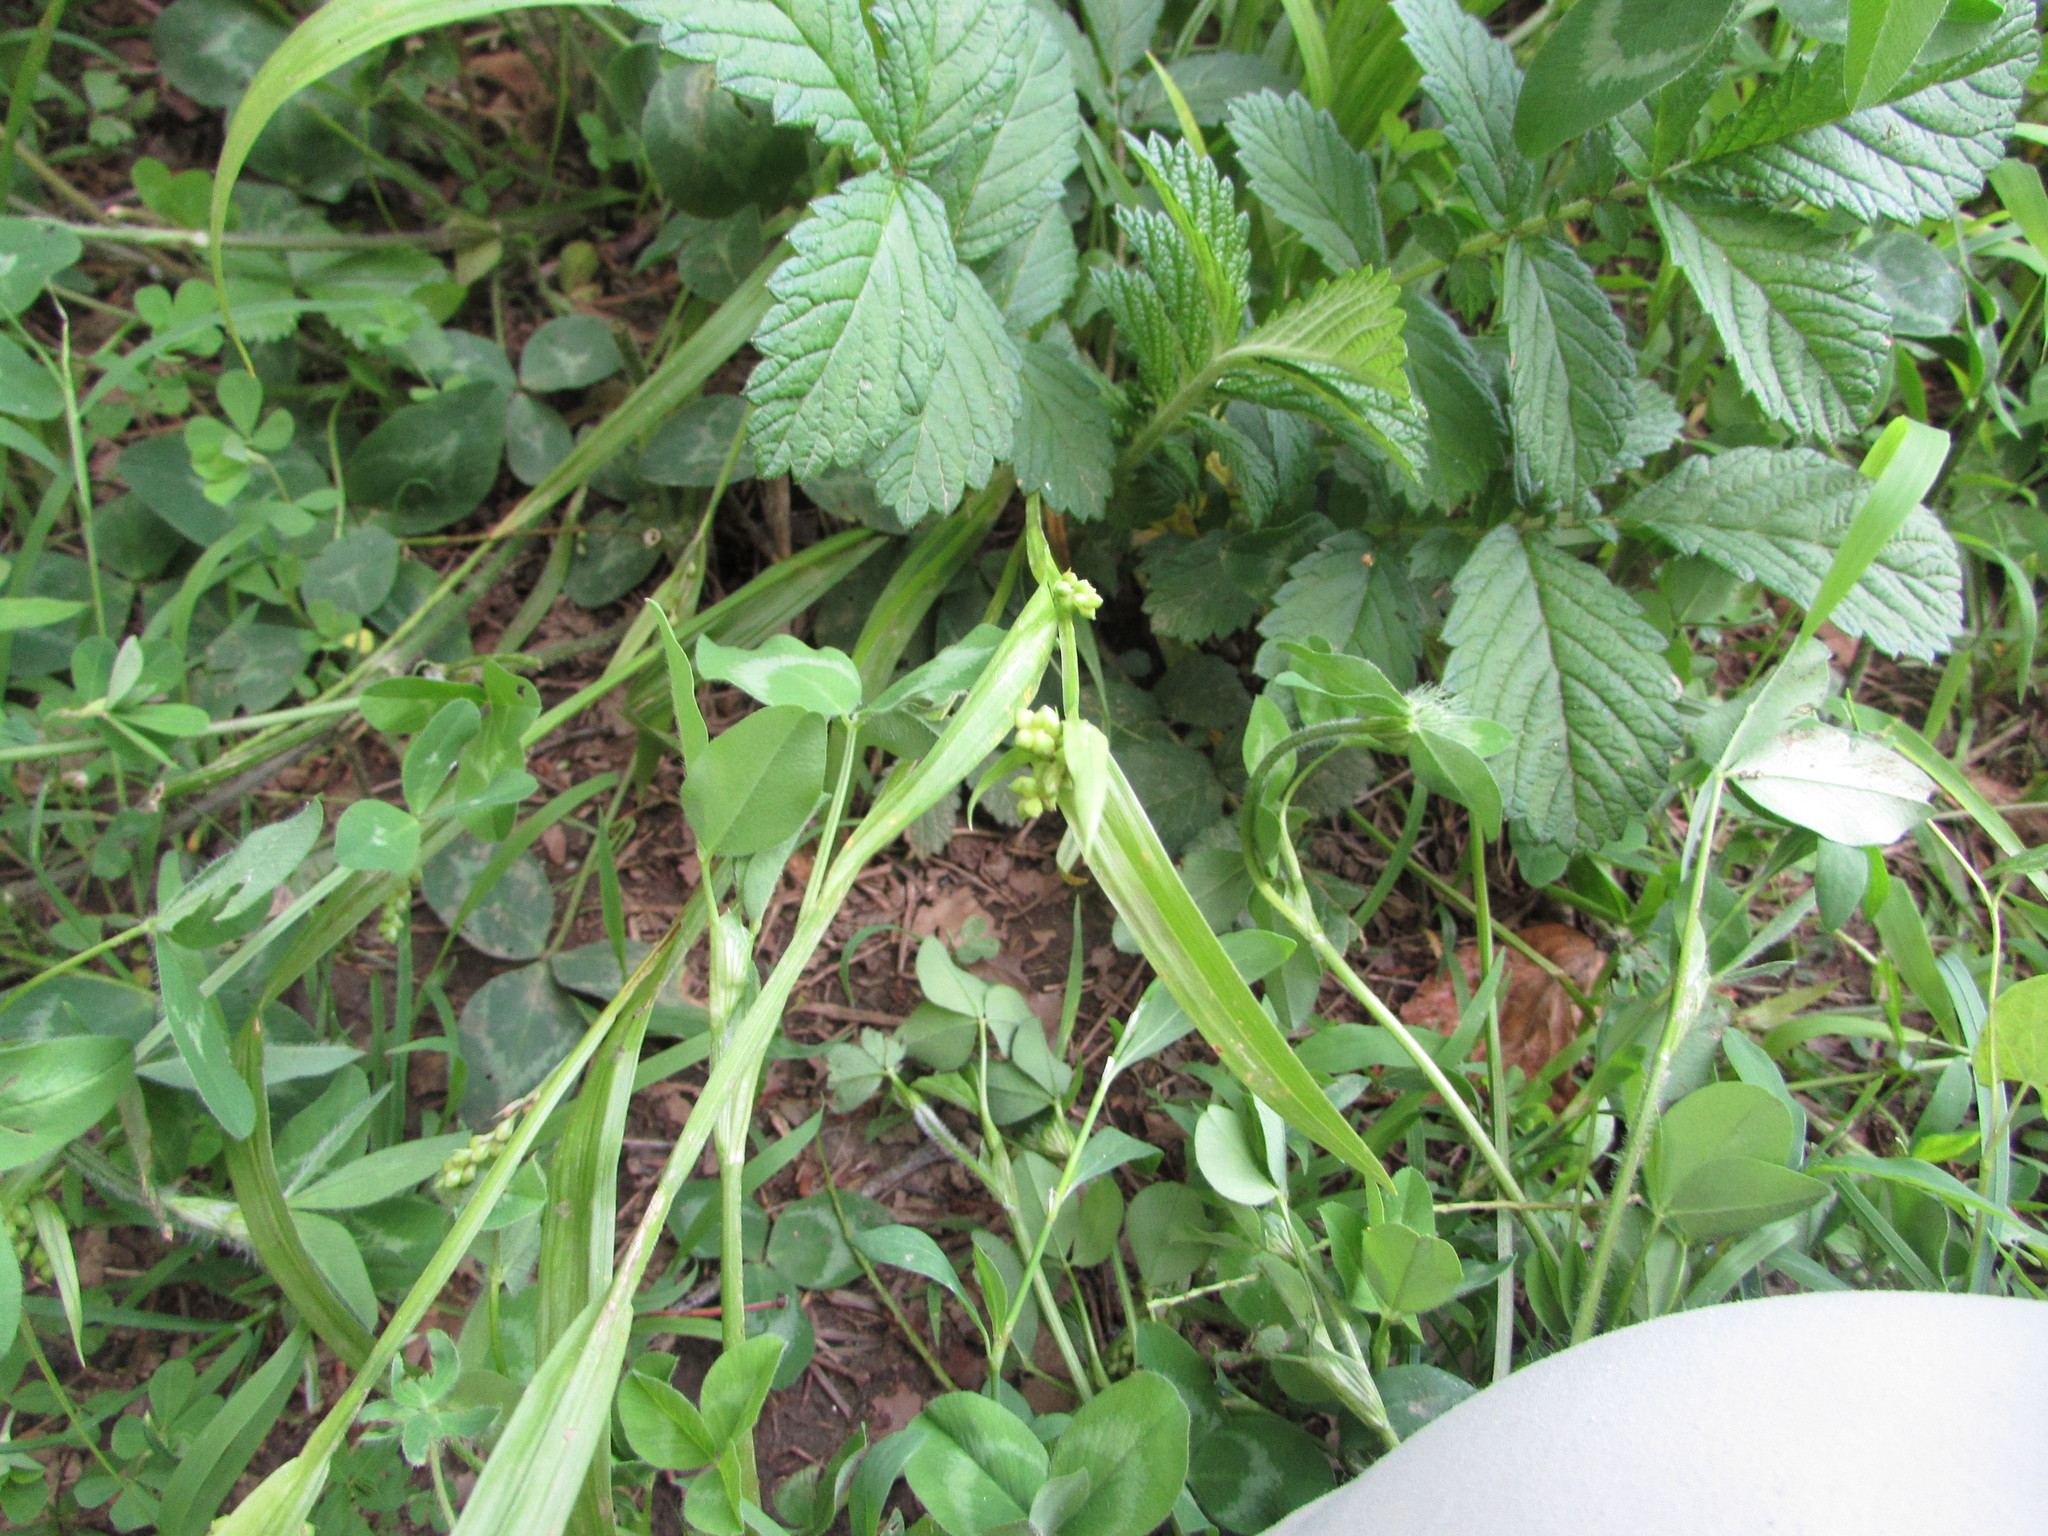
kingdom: Plantae
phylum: Tracheophyta
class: Liliopsida
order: Poales
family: Cyperaceae
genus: Carex
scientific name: Carex blanda
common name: Bland sedge
